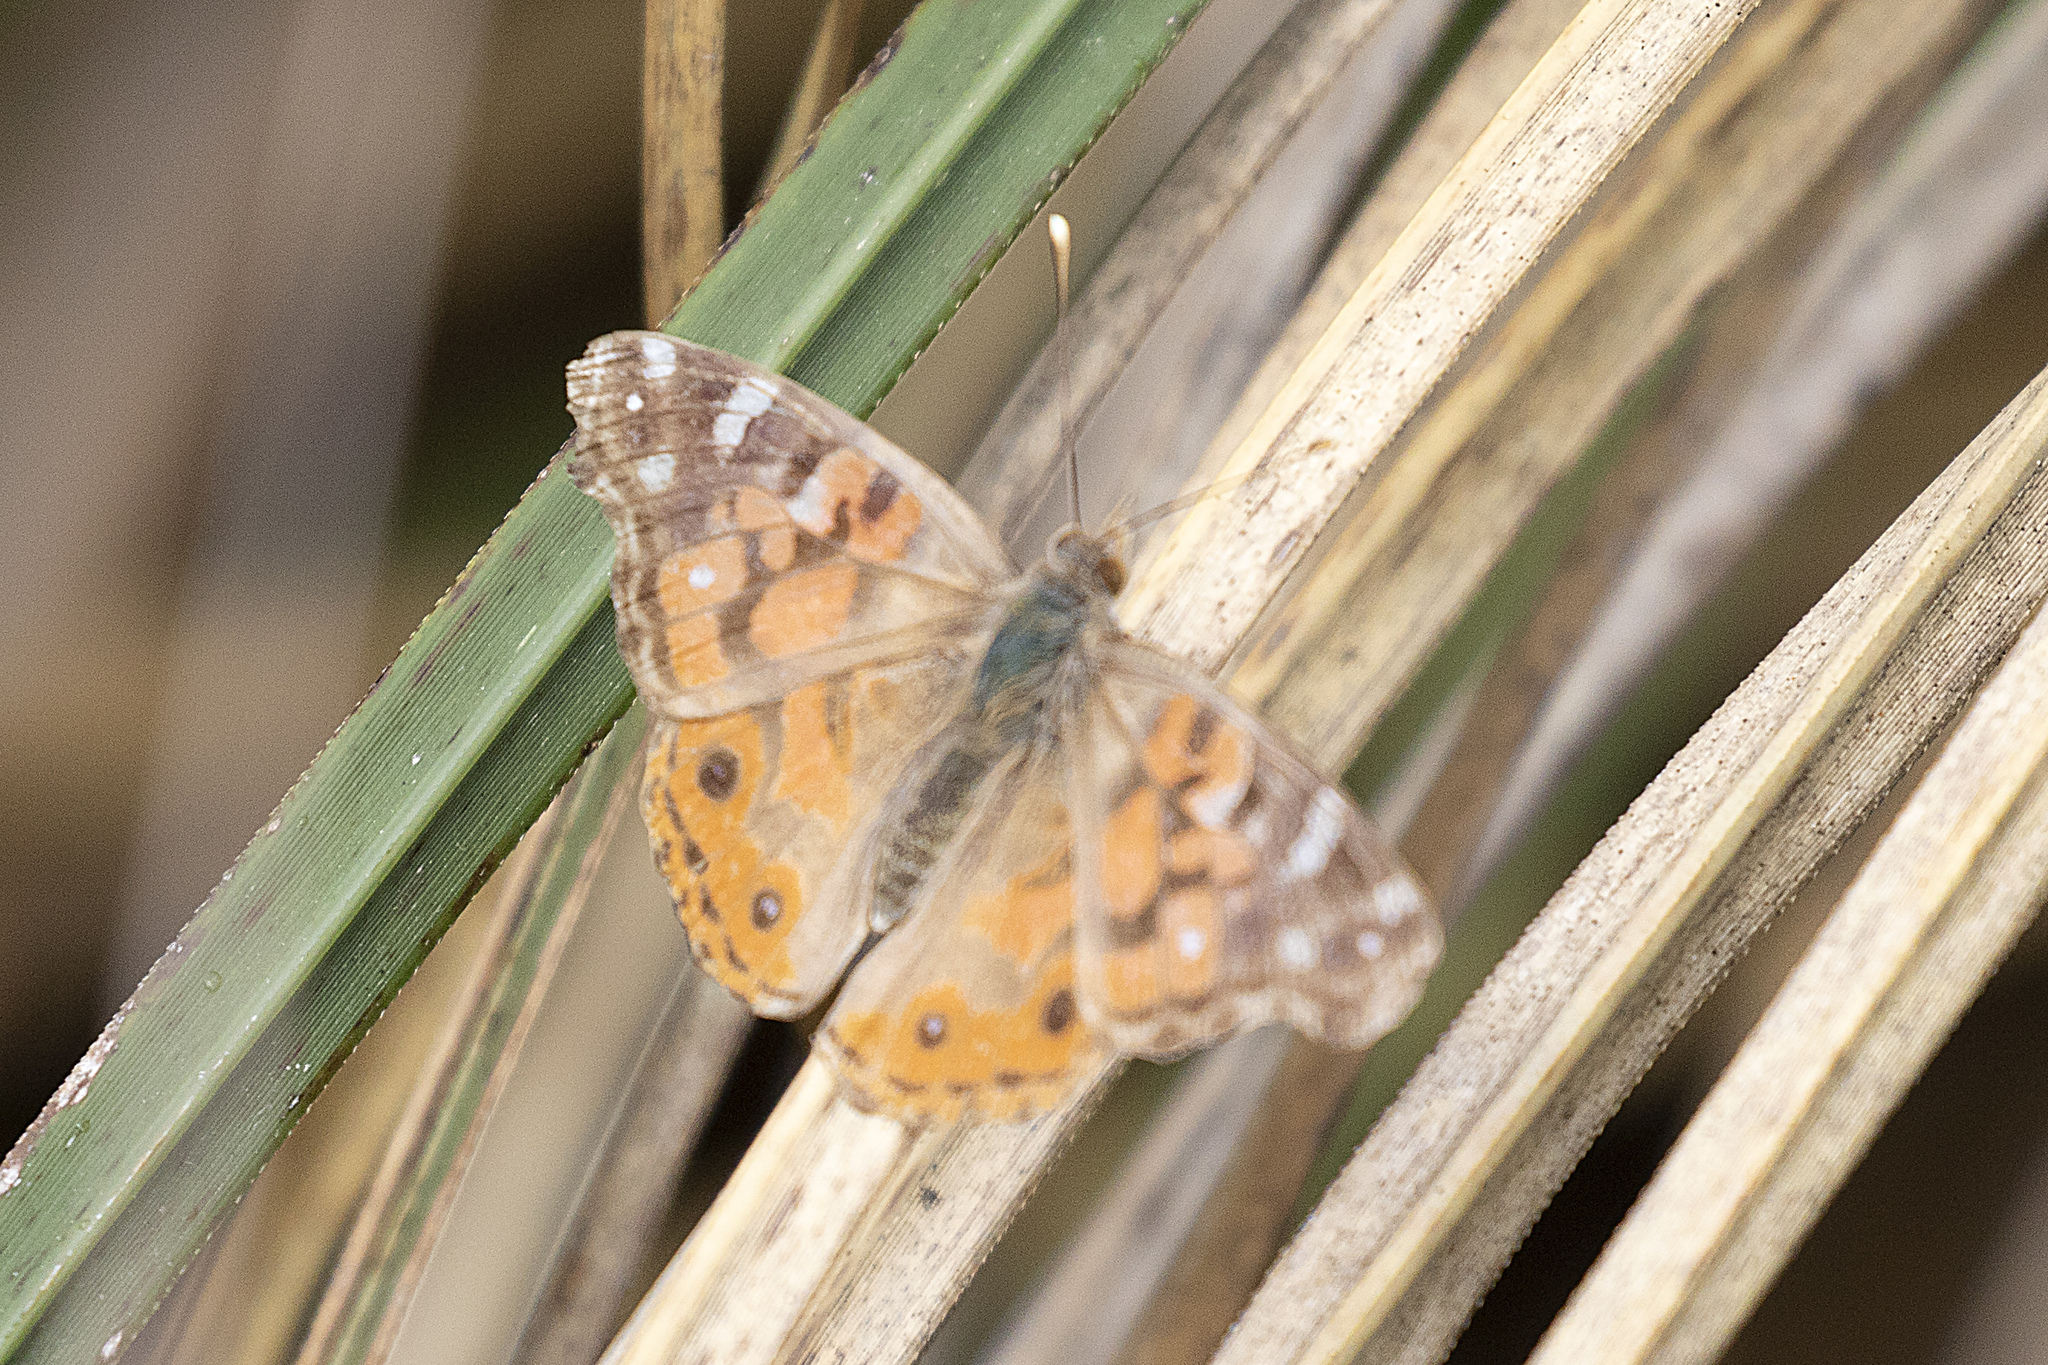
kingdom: Animalia
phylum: Arthropoda
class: Insecta
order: Lepidoptera
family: Nymphalidae
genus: Vanessa
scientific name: Vanessa braziliensis
